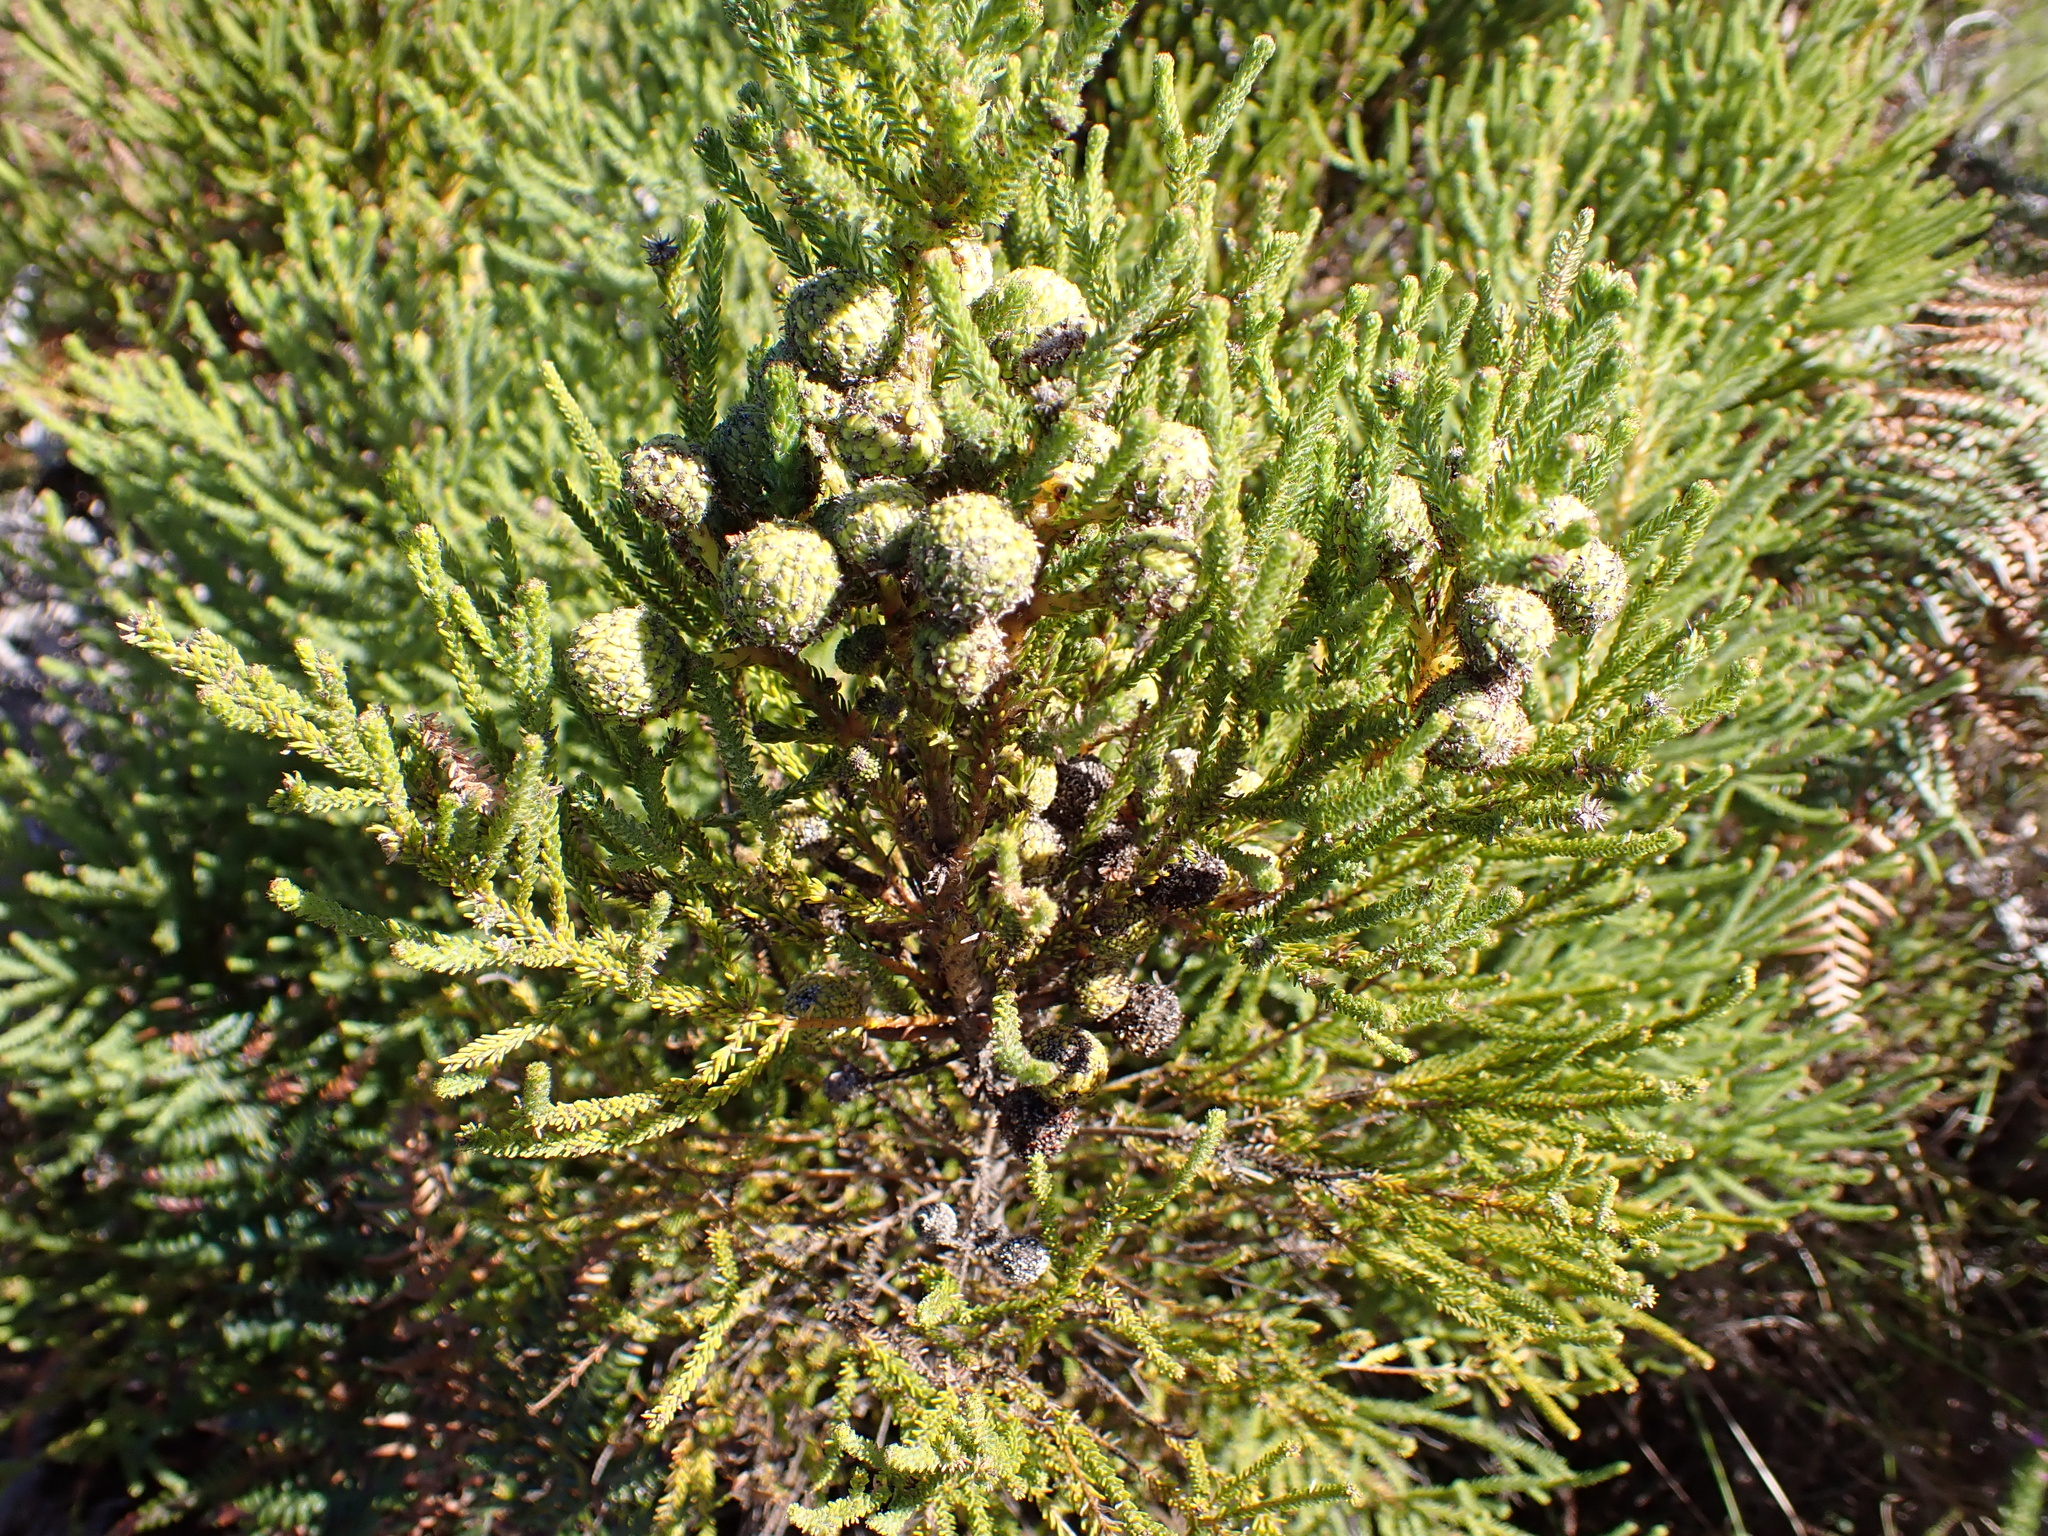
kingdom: Plantae
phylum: Tracheophyta
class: Magnoliopsida
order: Bruniales
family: Bruniaceae
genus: Berzelia
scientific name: Berzelia intermedia
